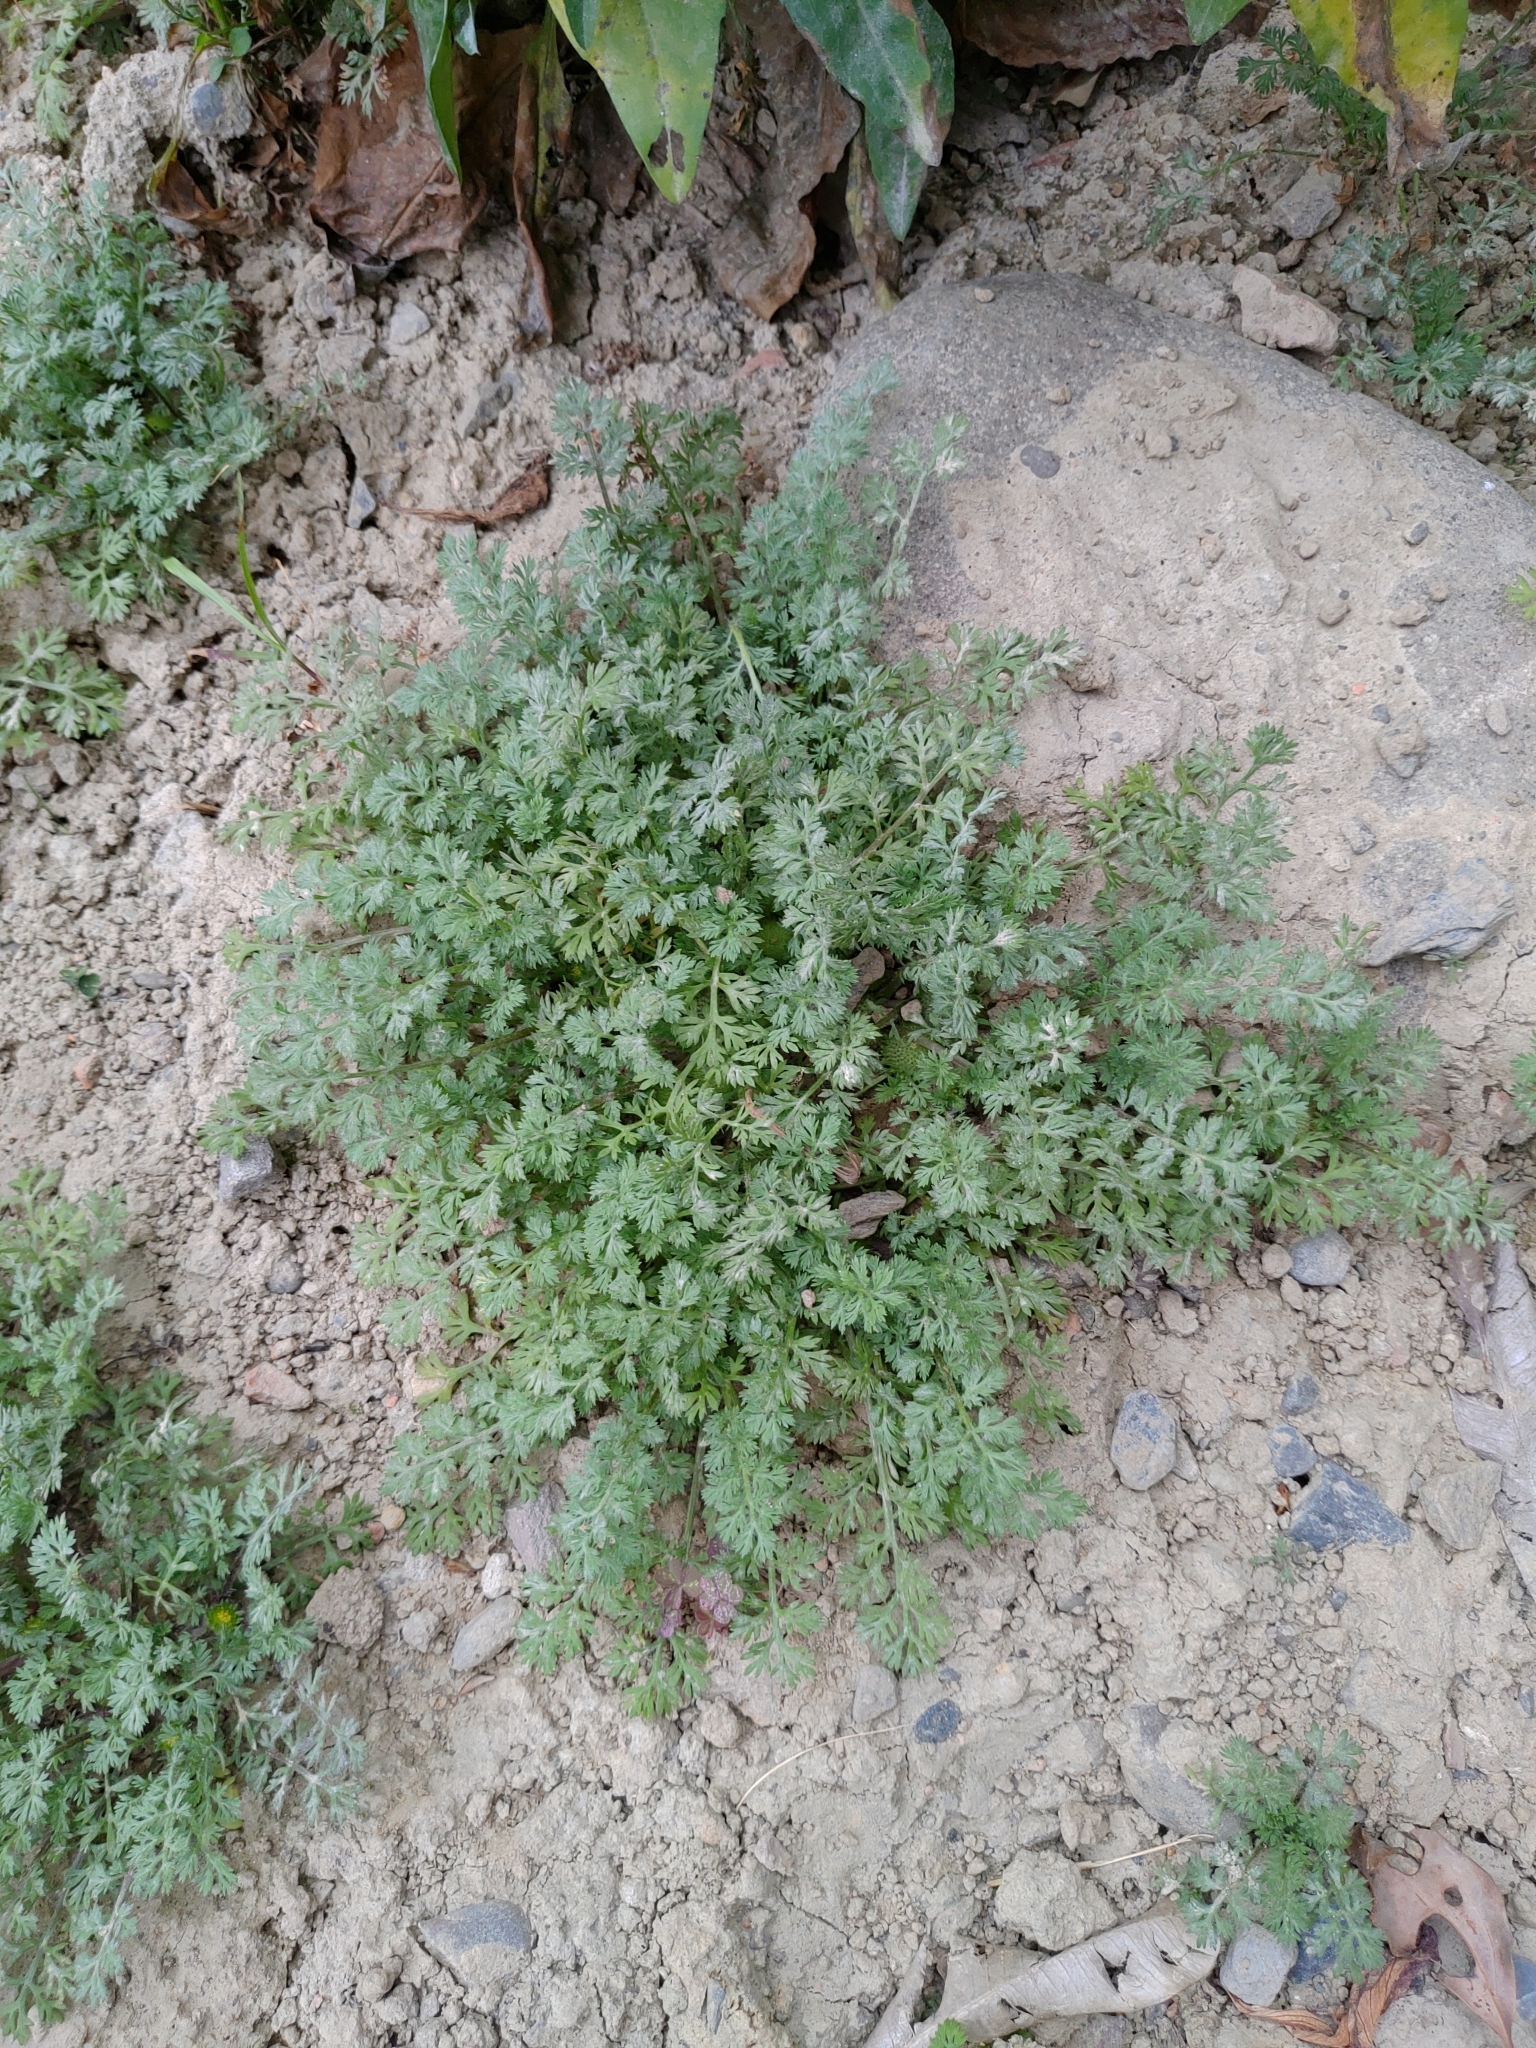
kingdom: Plantae
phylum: Tracheophyta
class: Magnoliopsida
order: Asterales
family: Asteraceae
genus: Soliva
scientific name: Soliva anthemifolia
